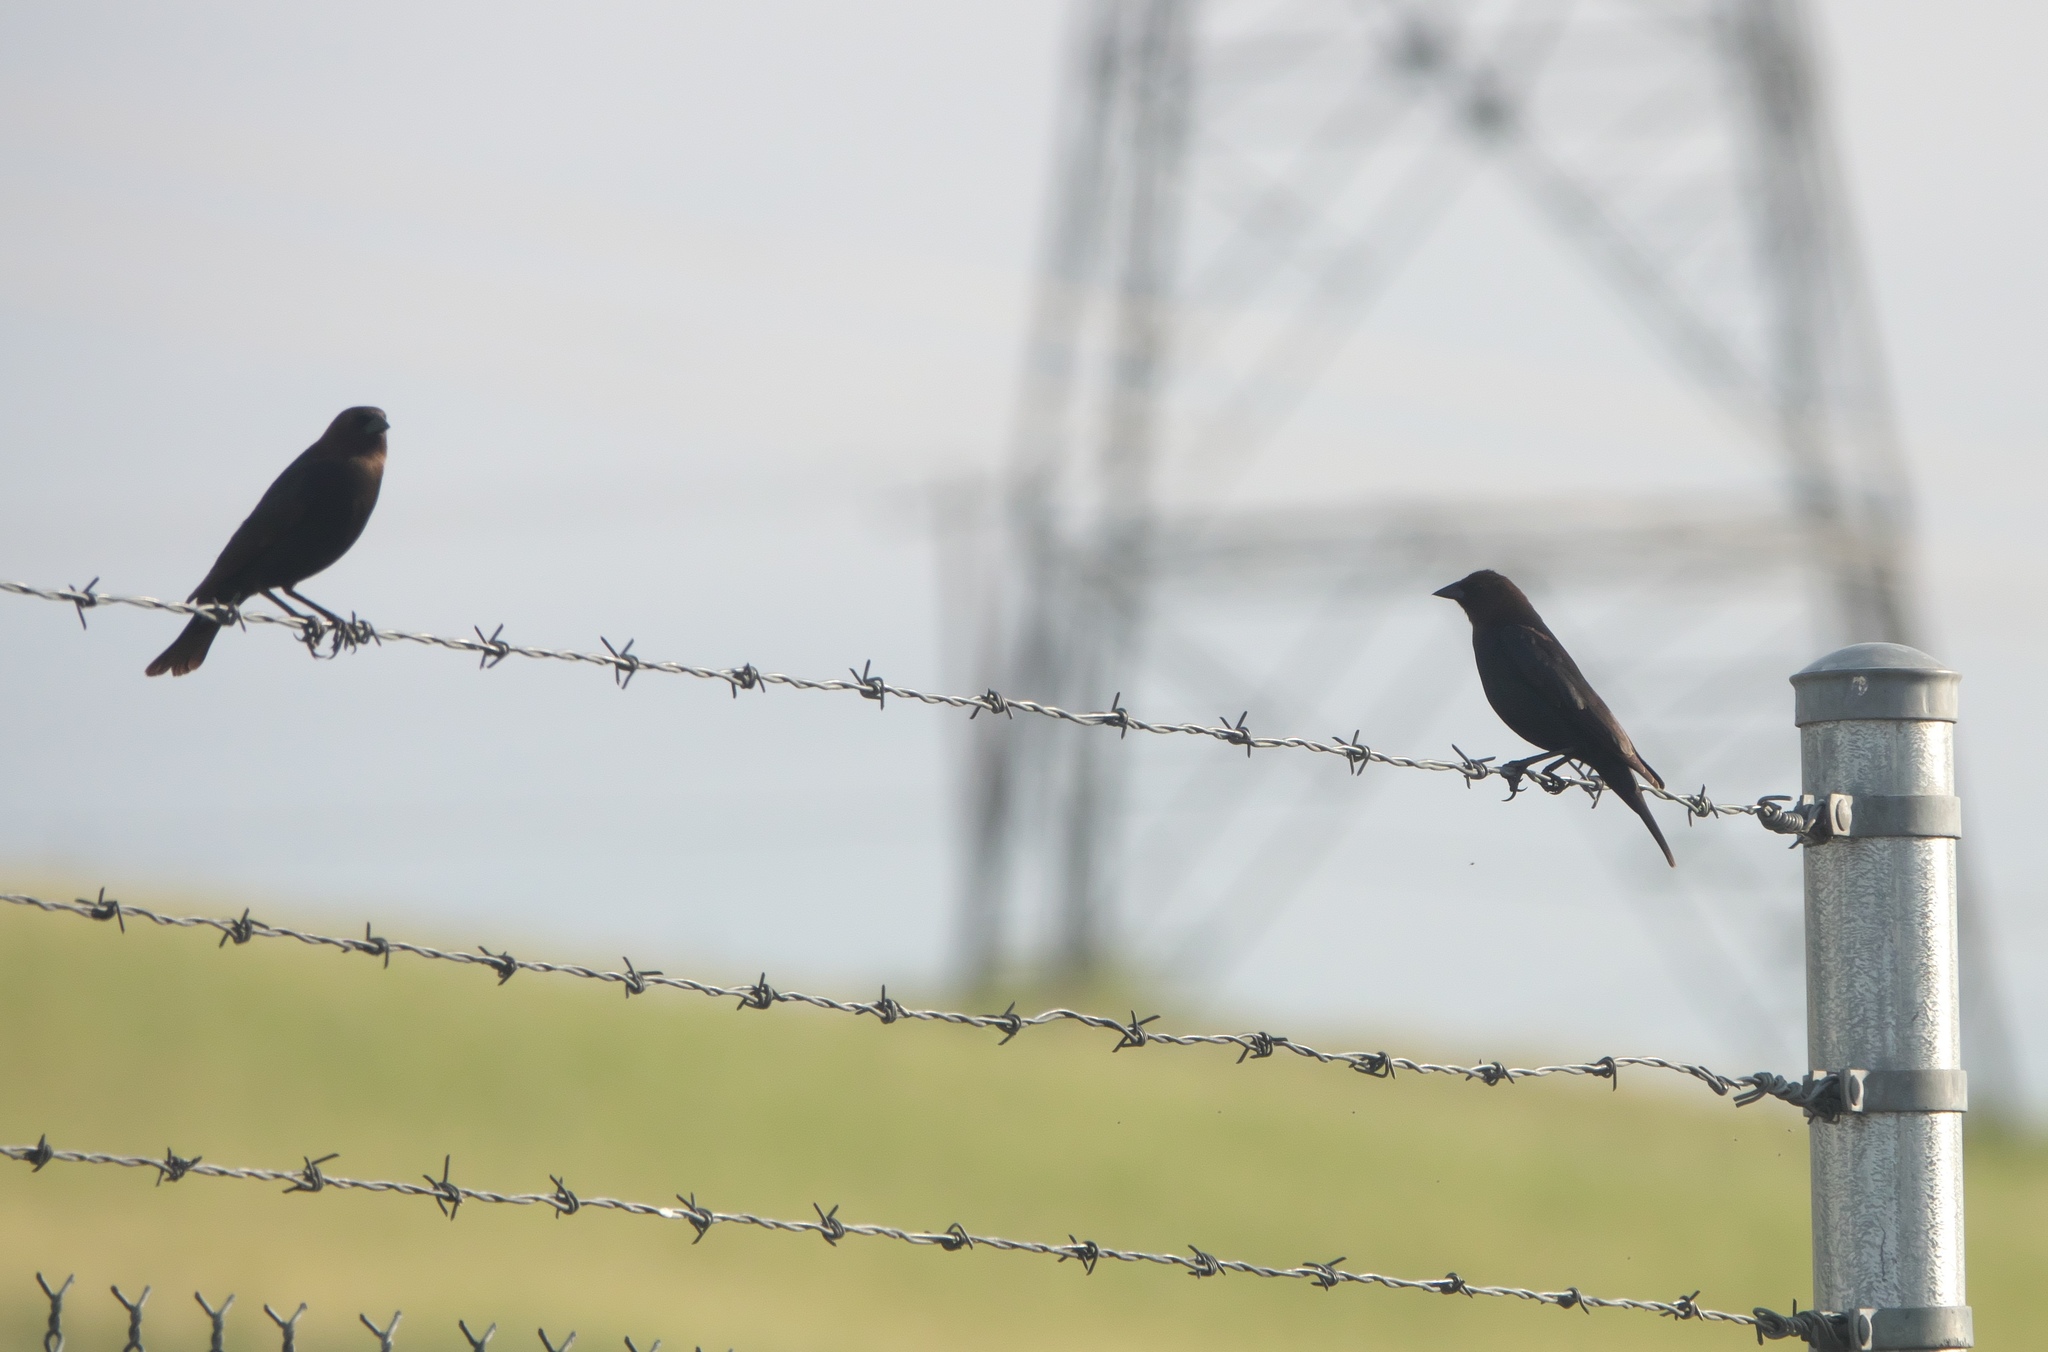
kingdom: Animalia
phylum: Chordata
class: Aves
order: Passeriformes
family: Icteridae
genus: Molothrus
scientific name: Molothrus ater
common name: Brown-headed cowbird
